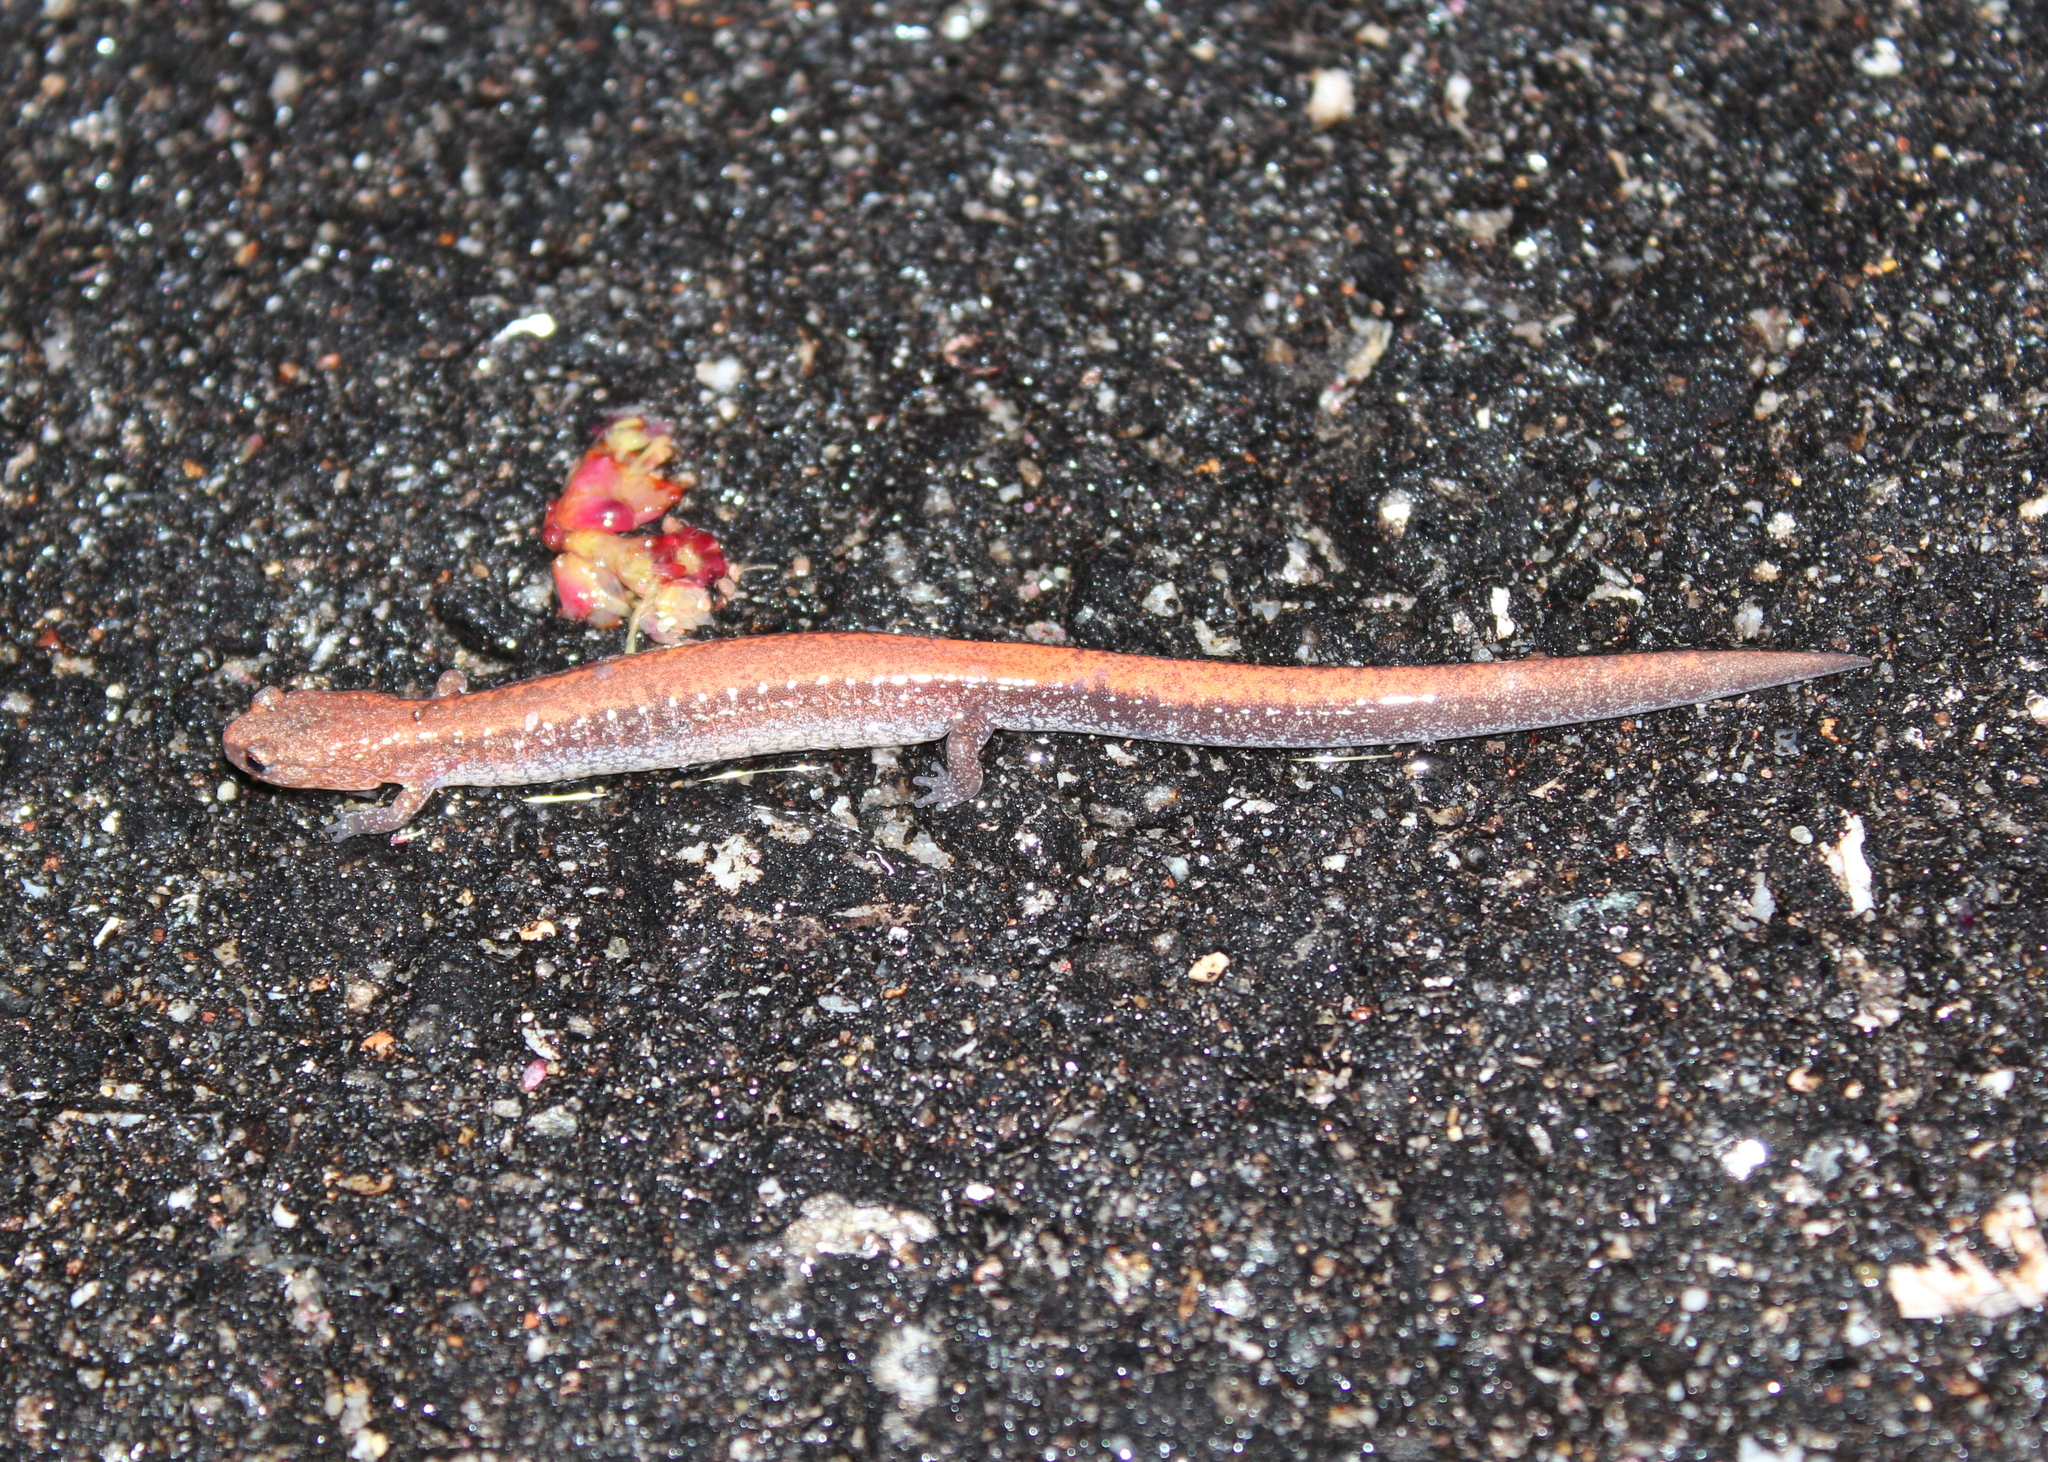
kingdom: Animalia
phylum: Chordata
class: Amphibia
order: Caudata
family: Plethodontidae
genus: Plethodon
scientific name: Plethodon cinereus
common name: Redback salamander
